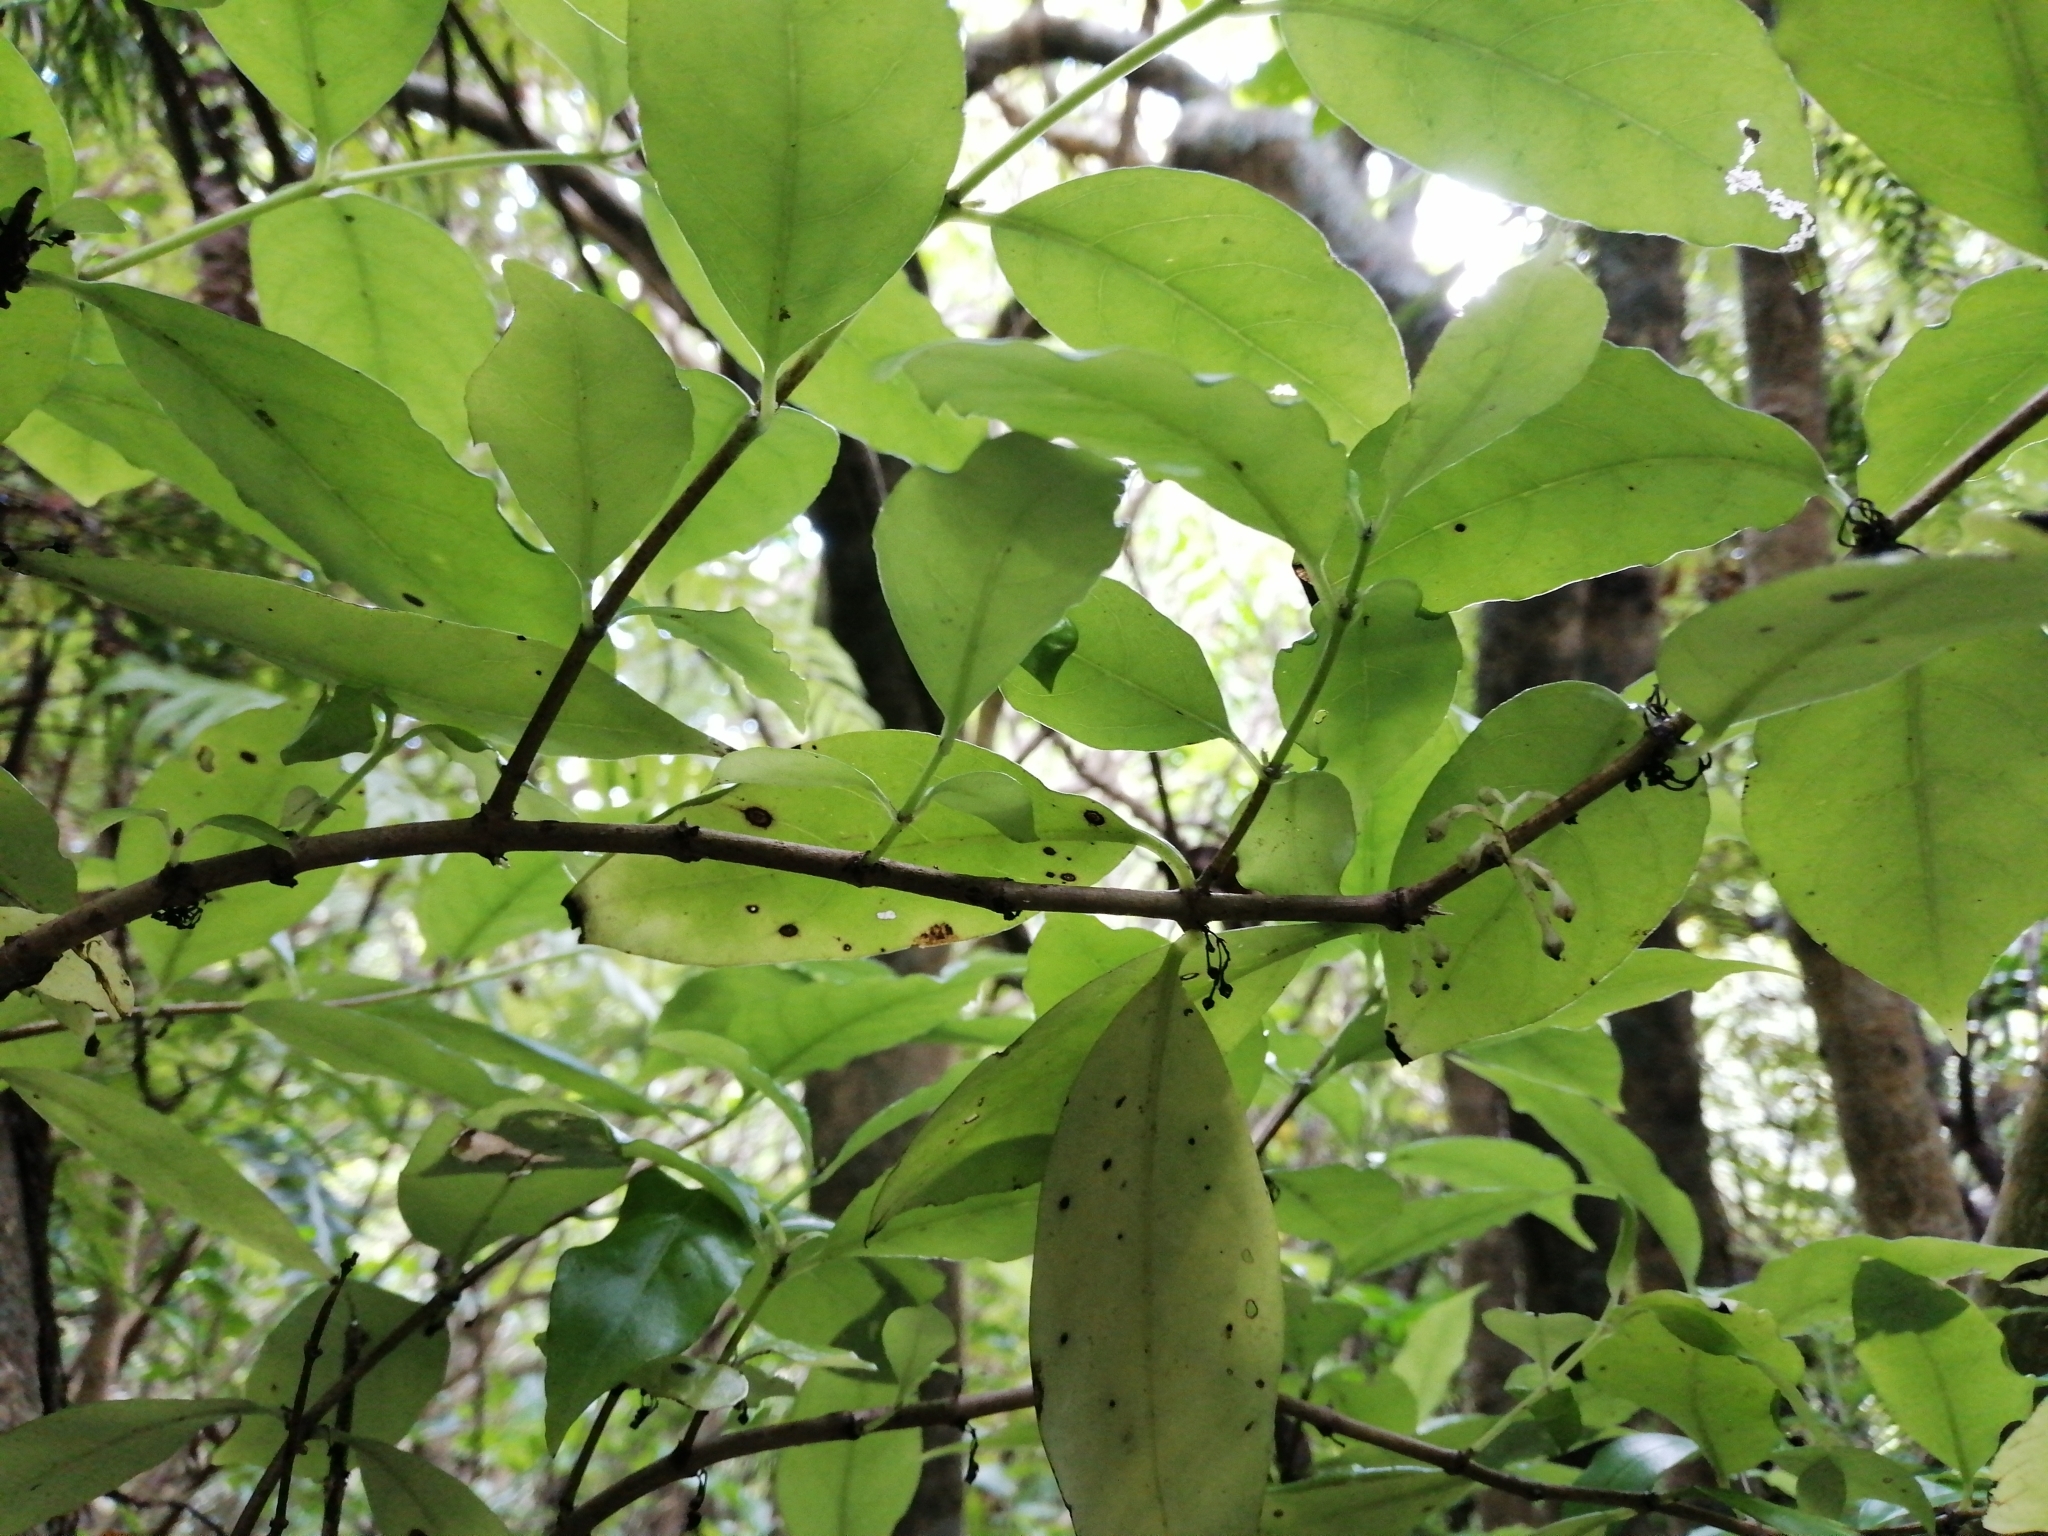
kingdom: Plantae
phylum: Tracheophyta
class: Magnoliopsida
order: Gentianales
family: Loganiaceae
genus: Geniostoma
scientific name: Geniostoma ligustrifolium
